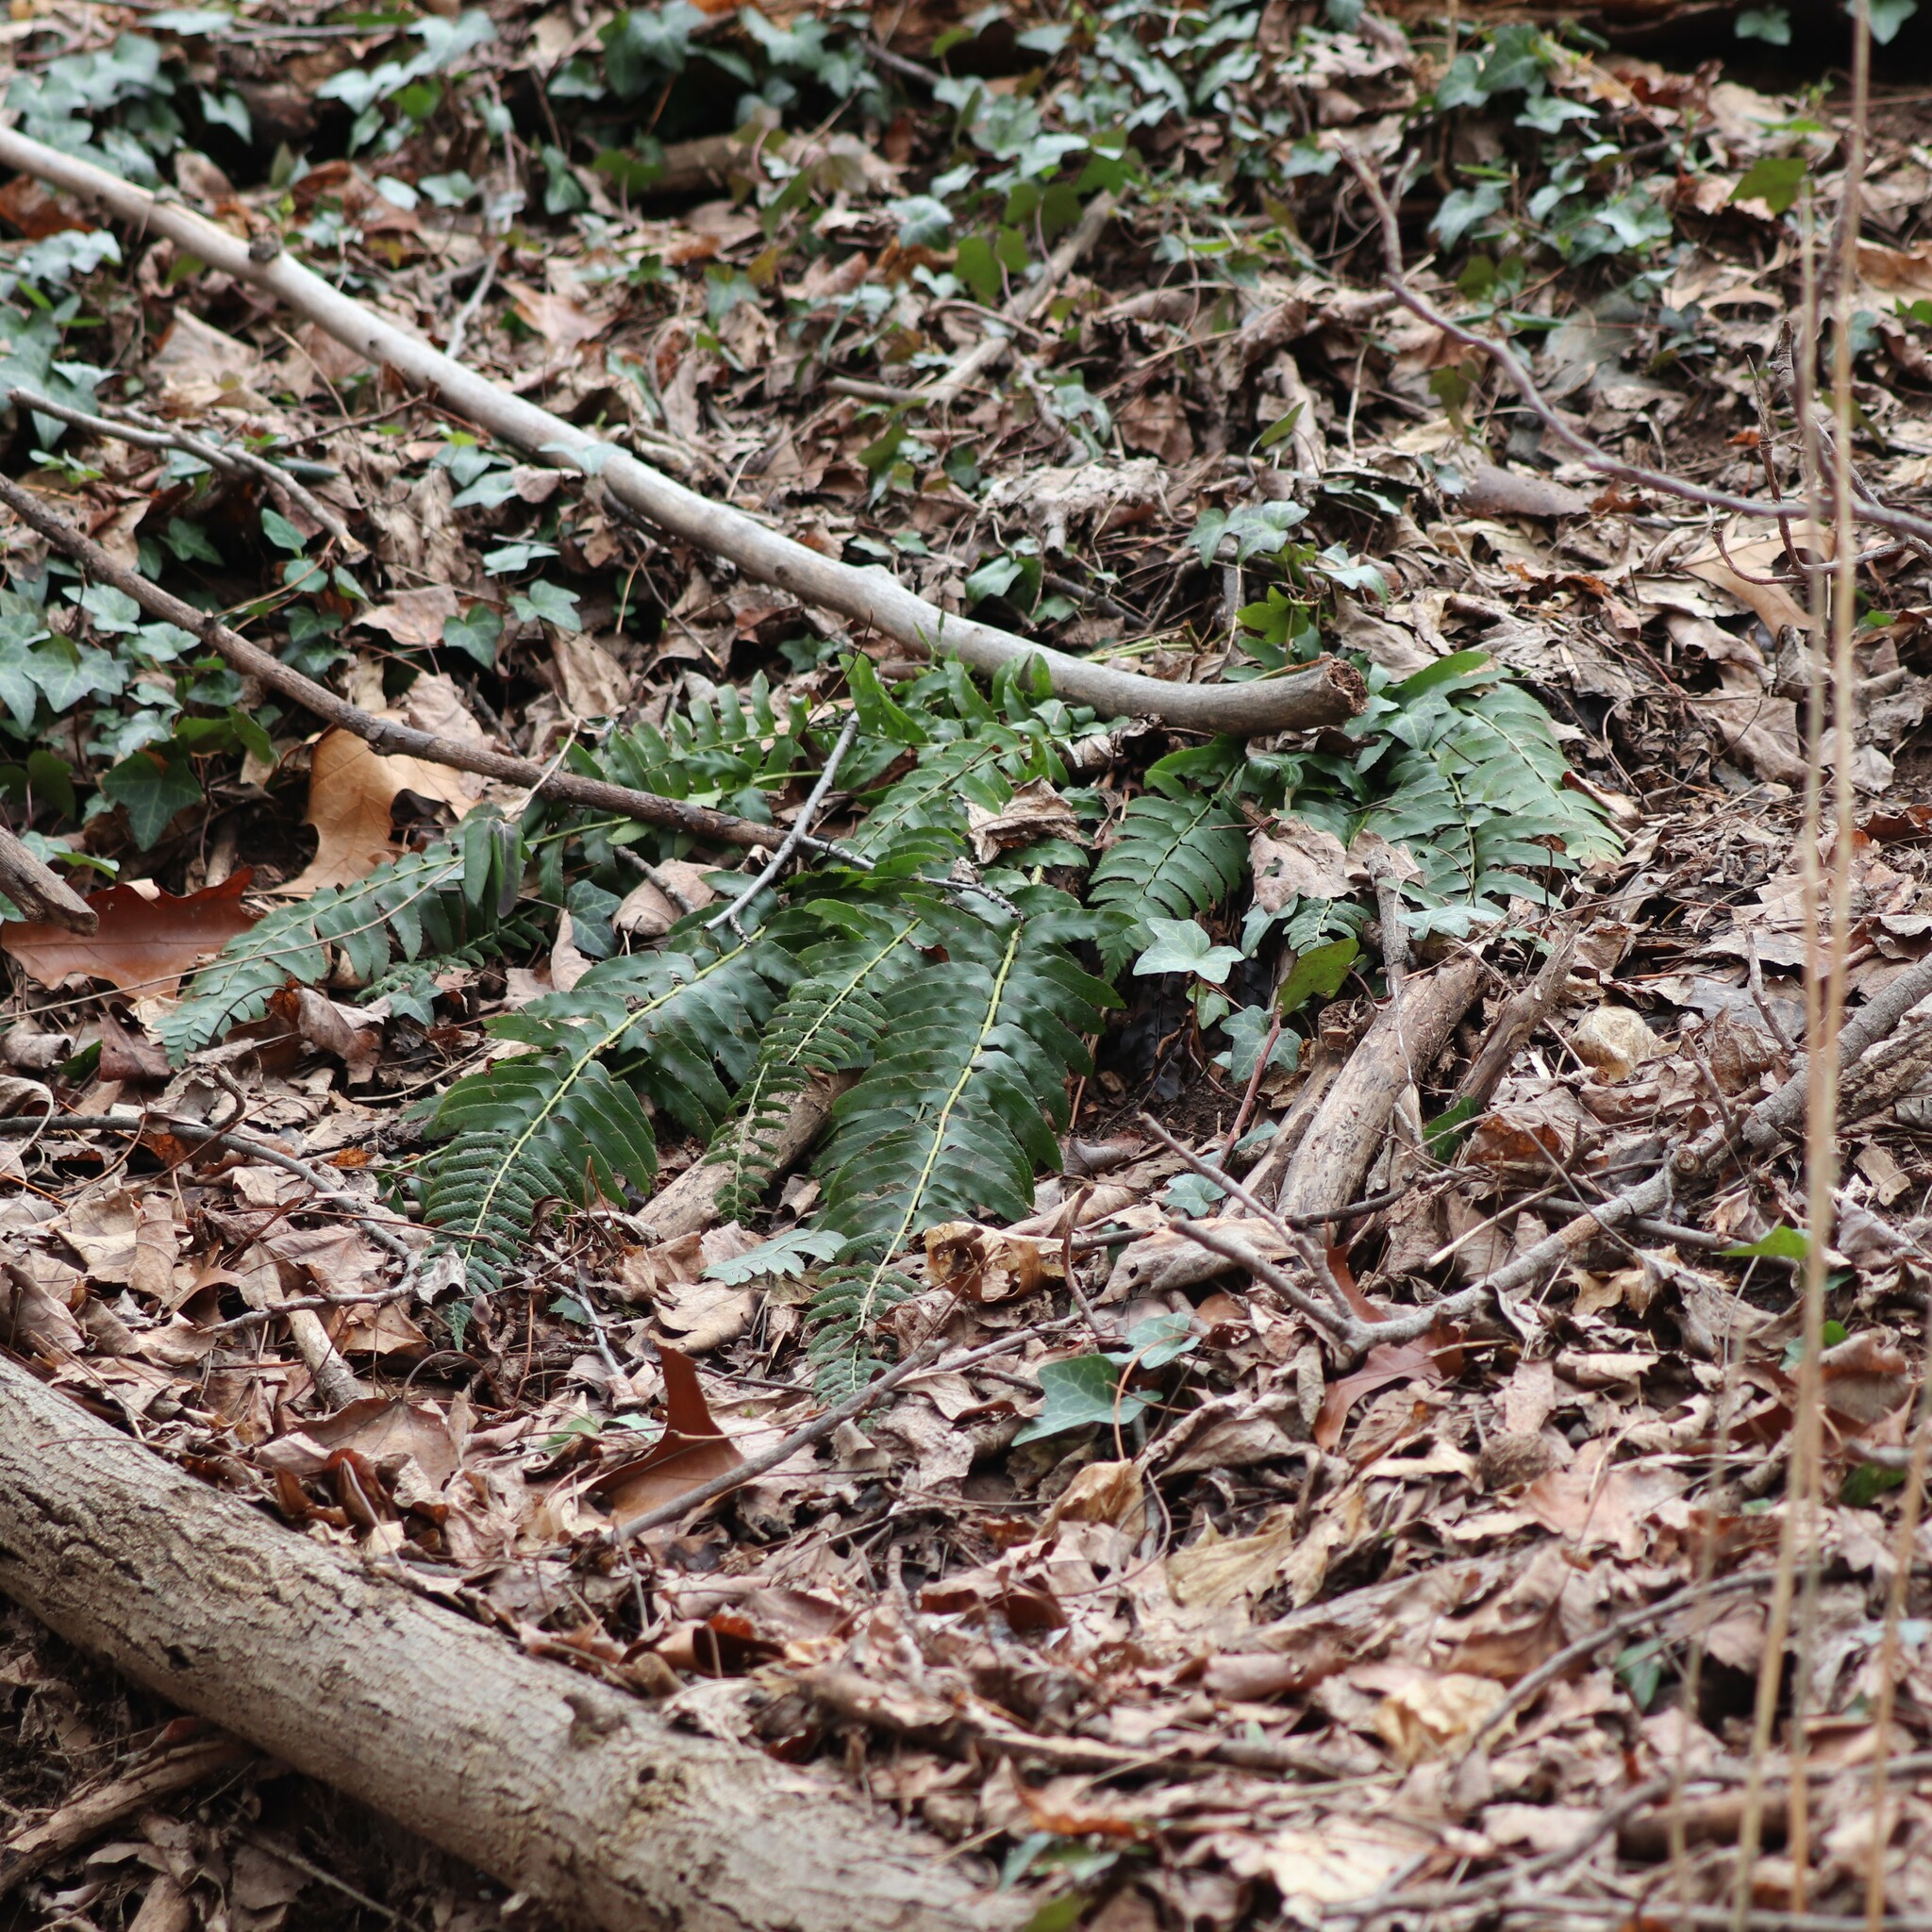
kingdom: Plantae
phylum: Tracheophyta
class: Polypodiopsida
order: Polypodiales
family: Dryopteridaceae
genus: Polystichum
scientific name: Polystichum acrostichoides
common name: Christmas fern
